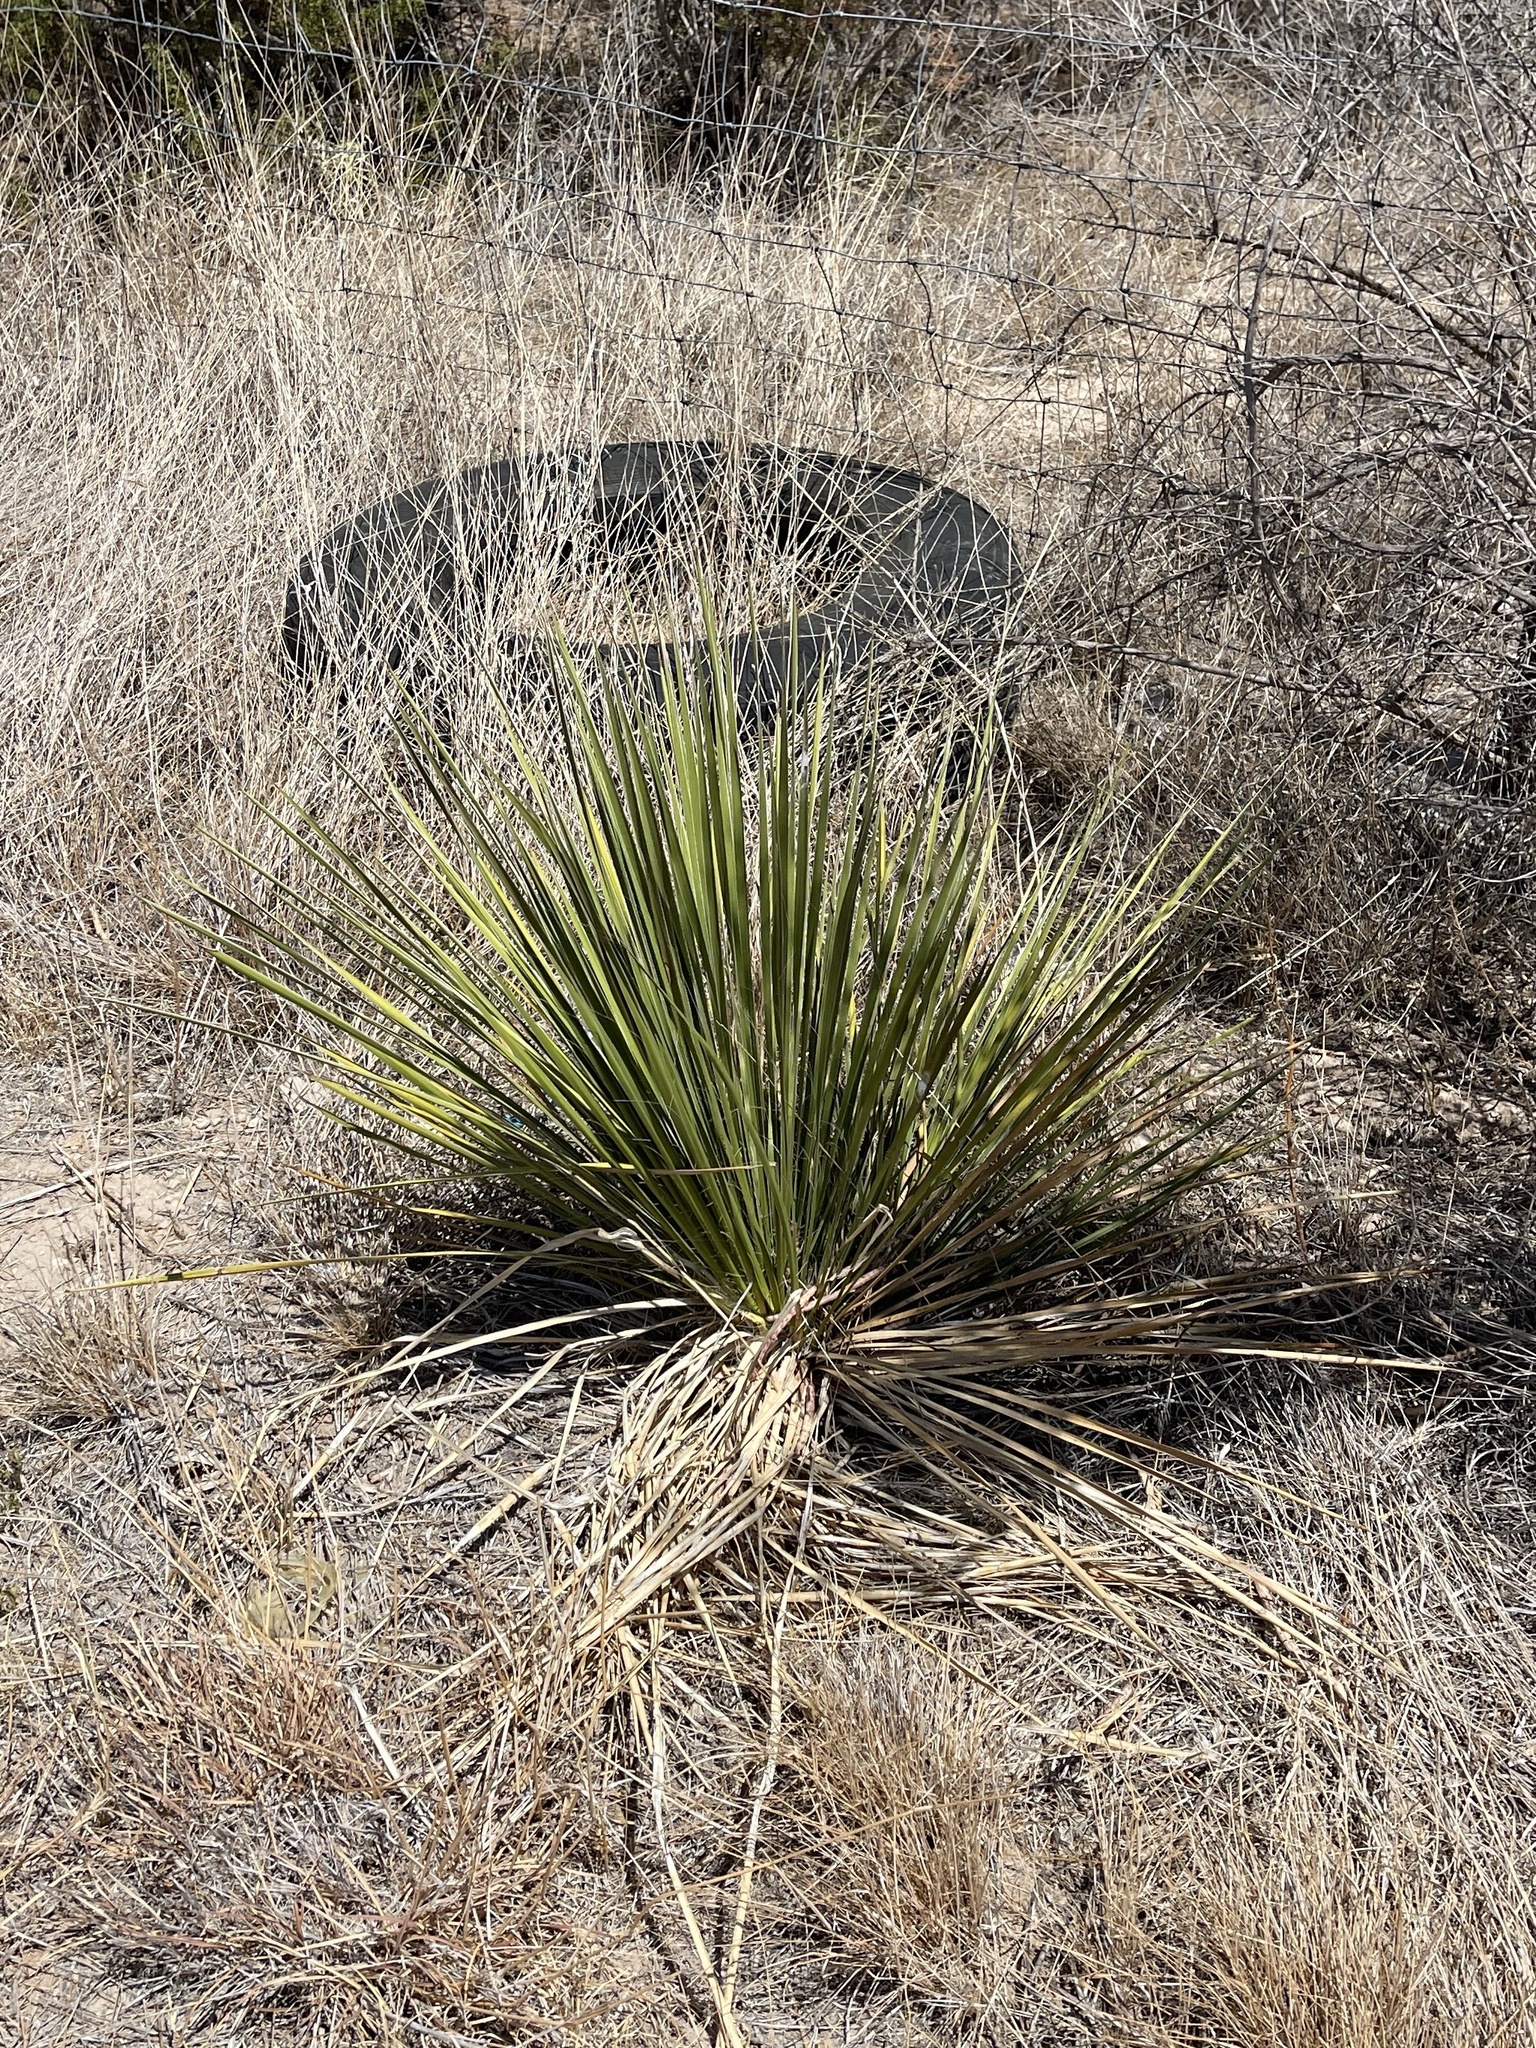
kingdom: Plantae
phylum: Tracheophyta
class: Liliopsida
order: Asparagales
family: Asparagaceae
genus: Yucca
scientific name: Yucca campestris
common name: Plains yucca
